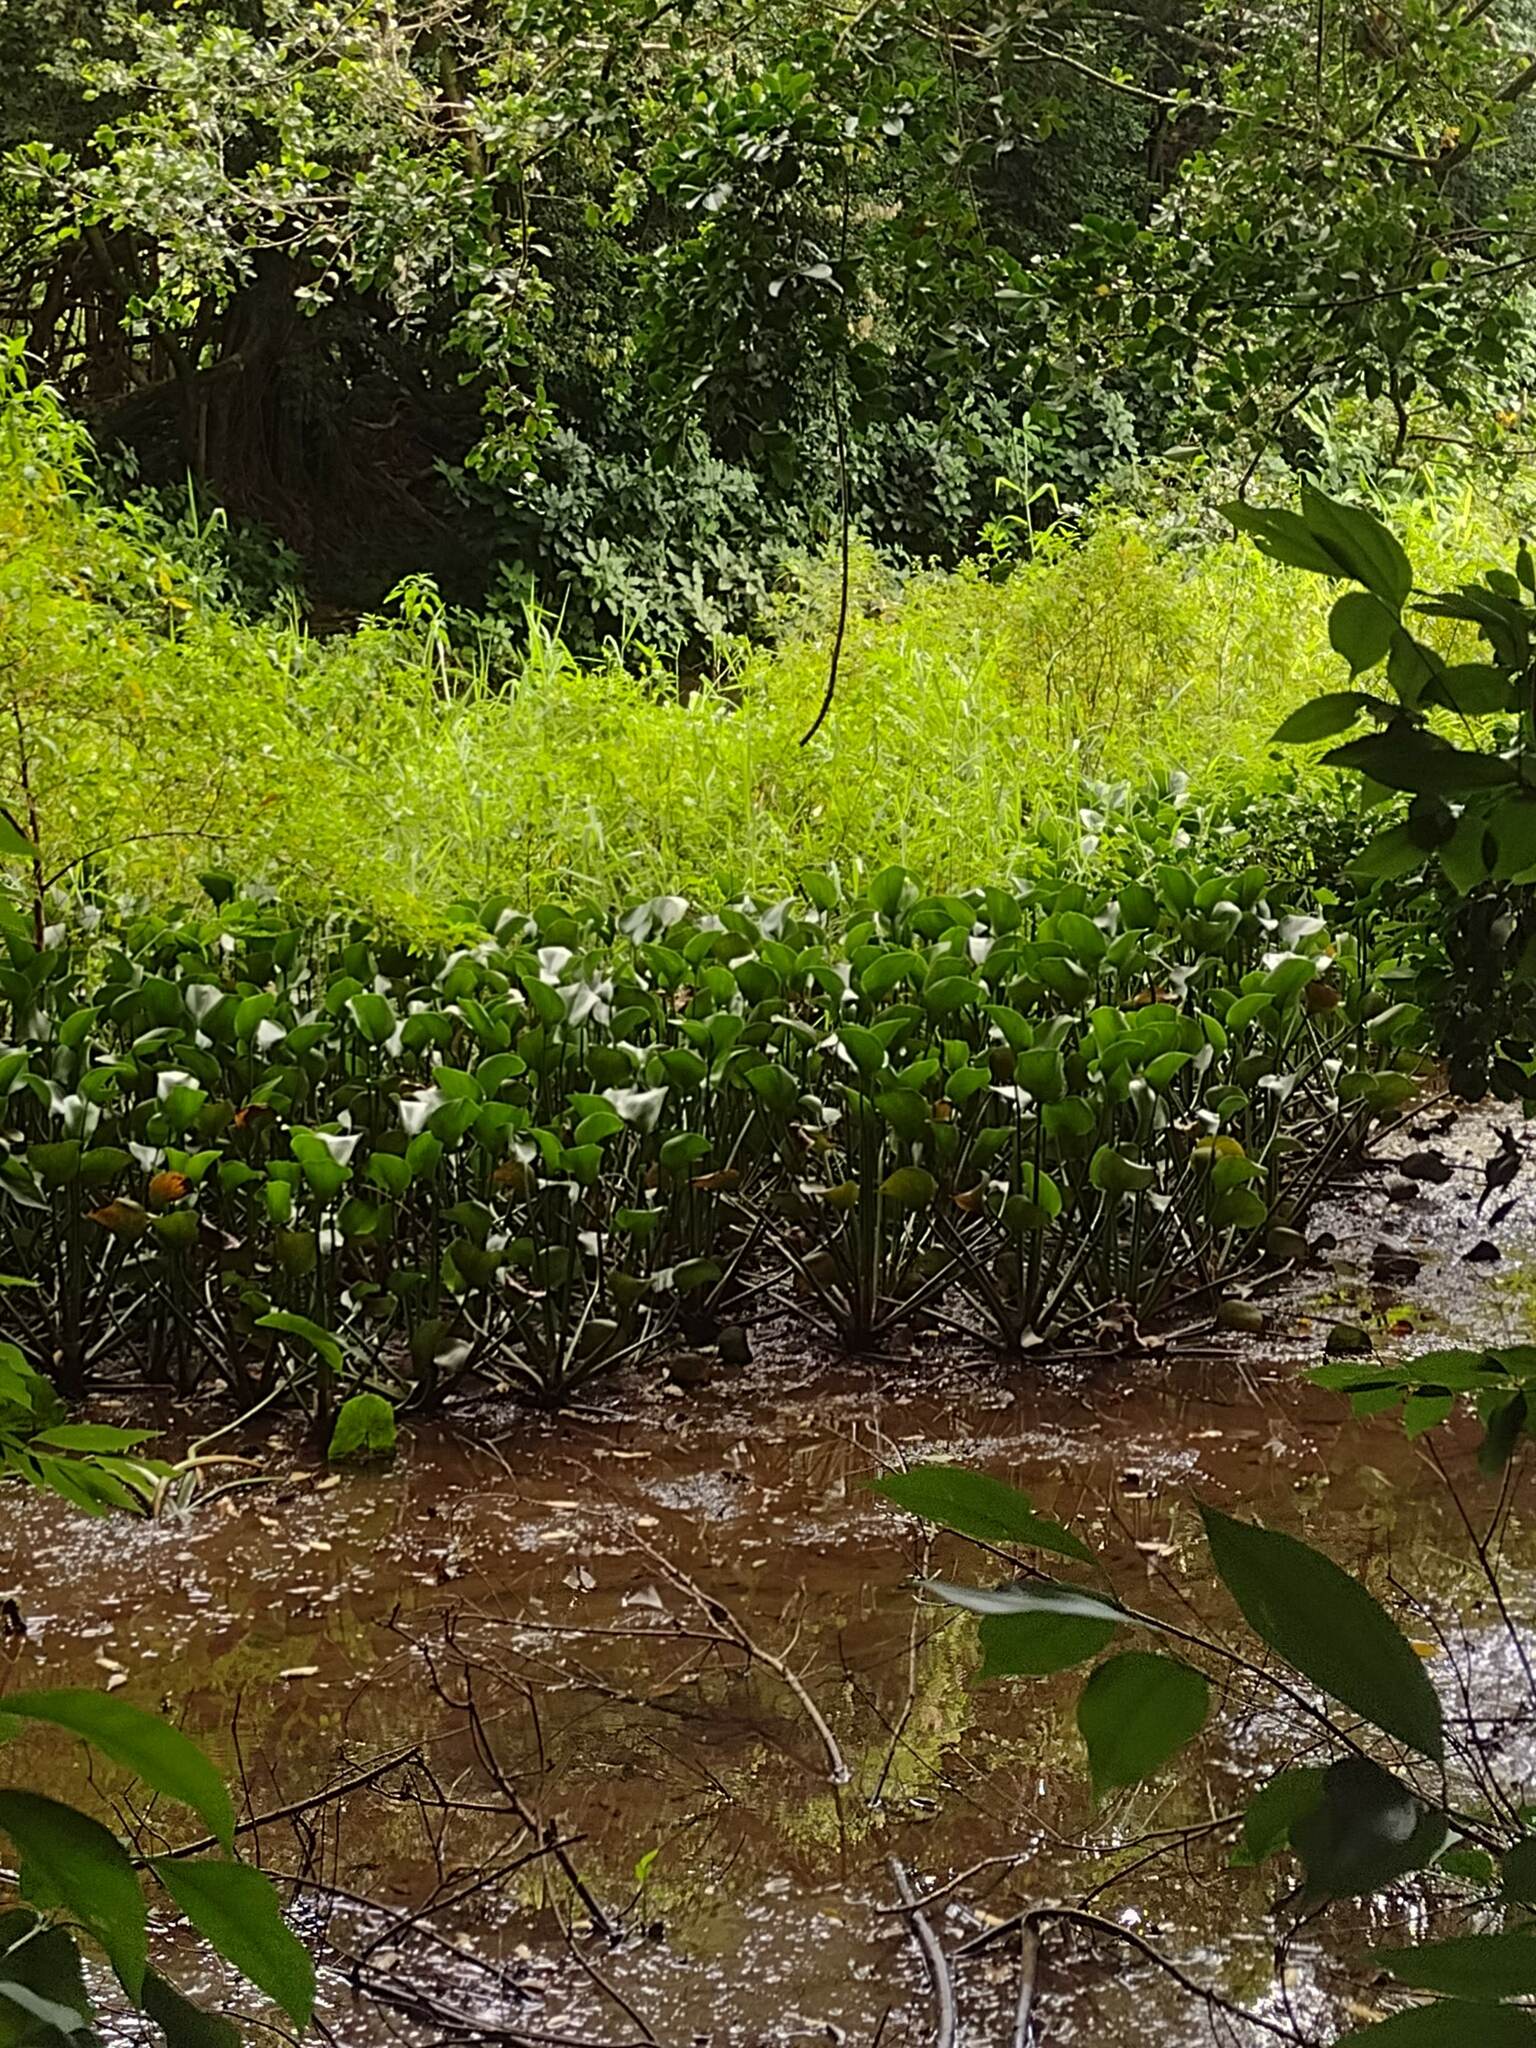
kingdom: Plantae
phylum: Tracheophyta
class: Liliopsida
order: Commelinales
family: Pontederiaceae
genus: Pontederia
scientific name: Pontederia crassipes
